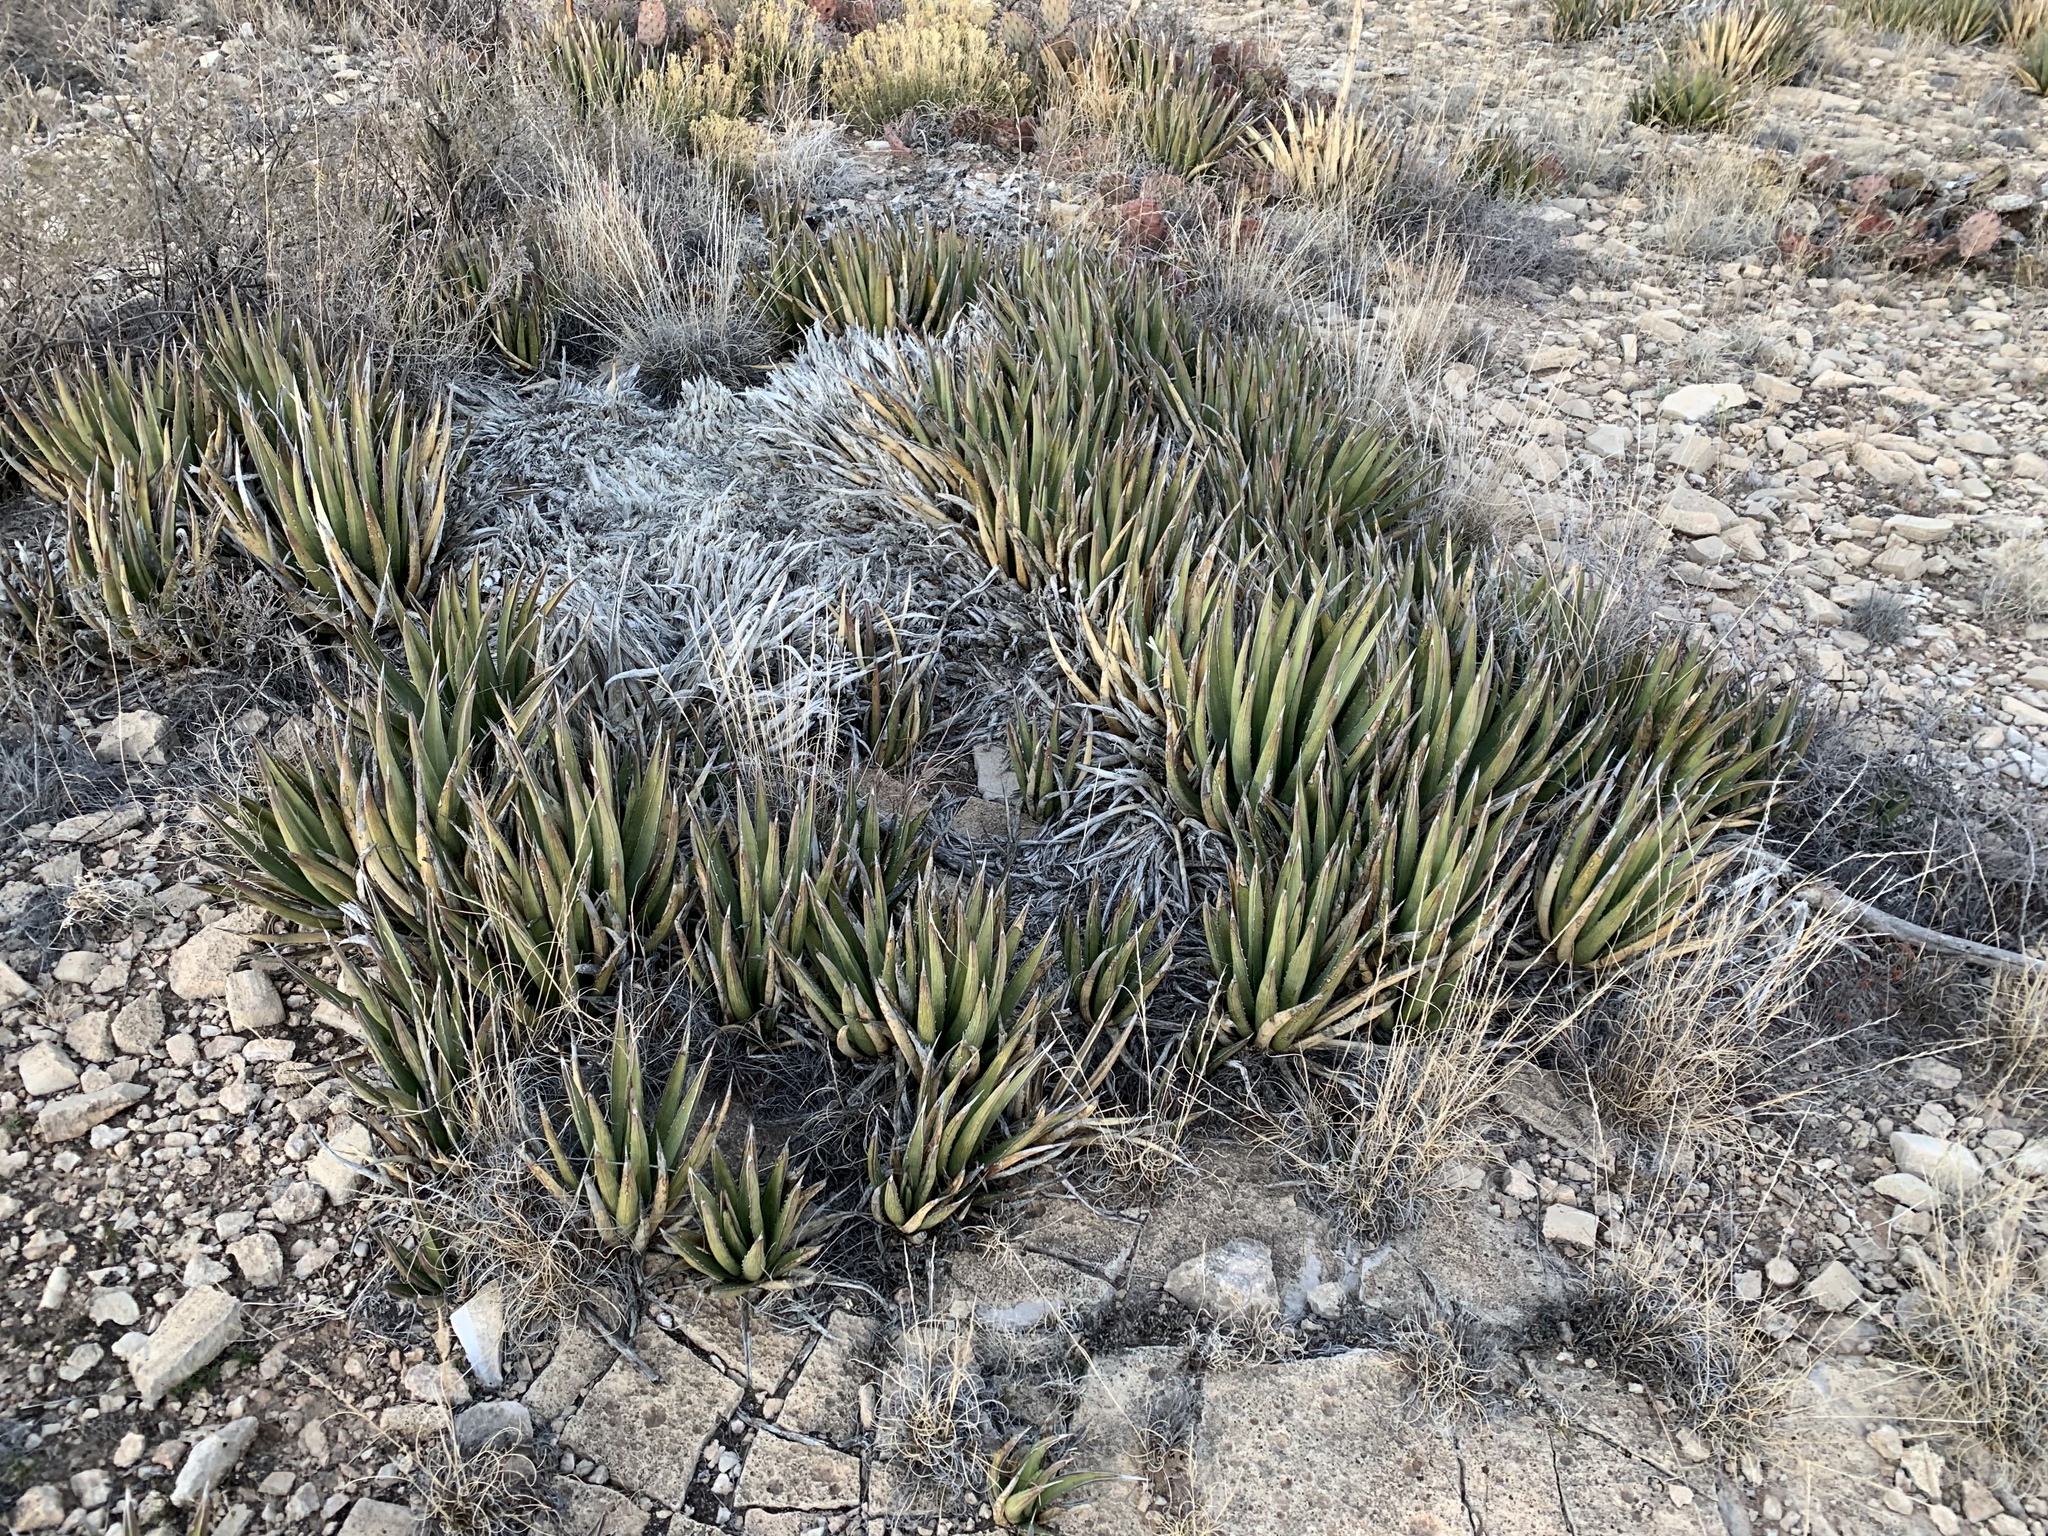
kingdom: Plantae
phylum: Tracheophyta
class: Liliopsida
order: Asparagales
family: Asparagaceae
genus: Agave
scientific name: Agave lechuguilla
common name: Lecheguilla agave
